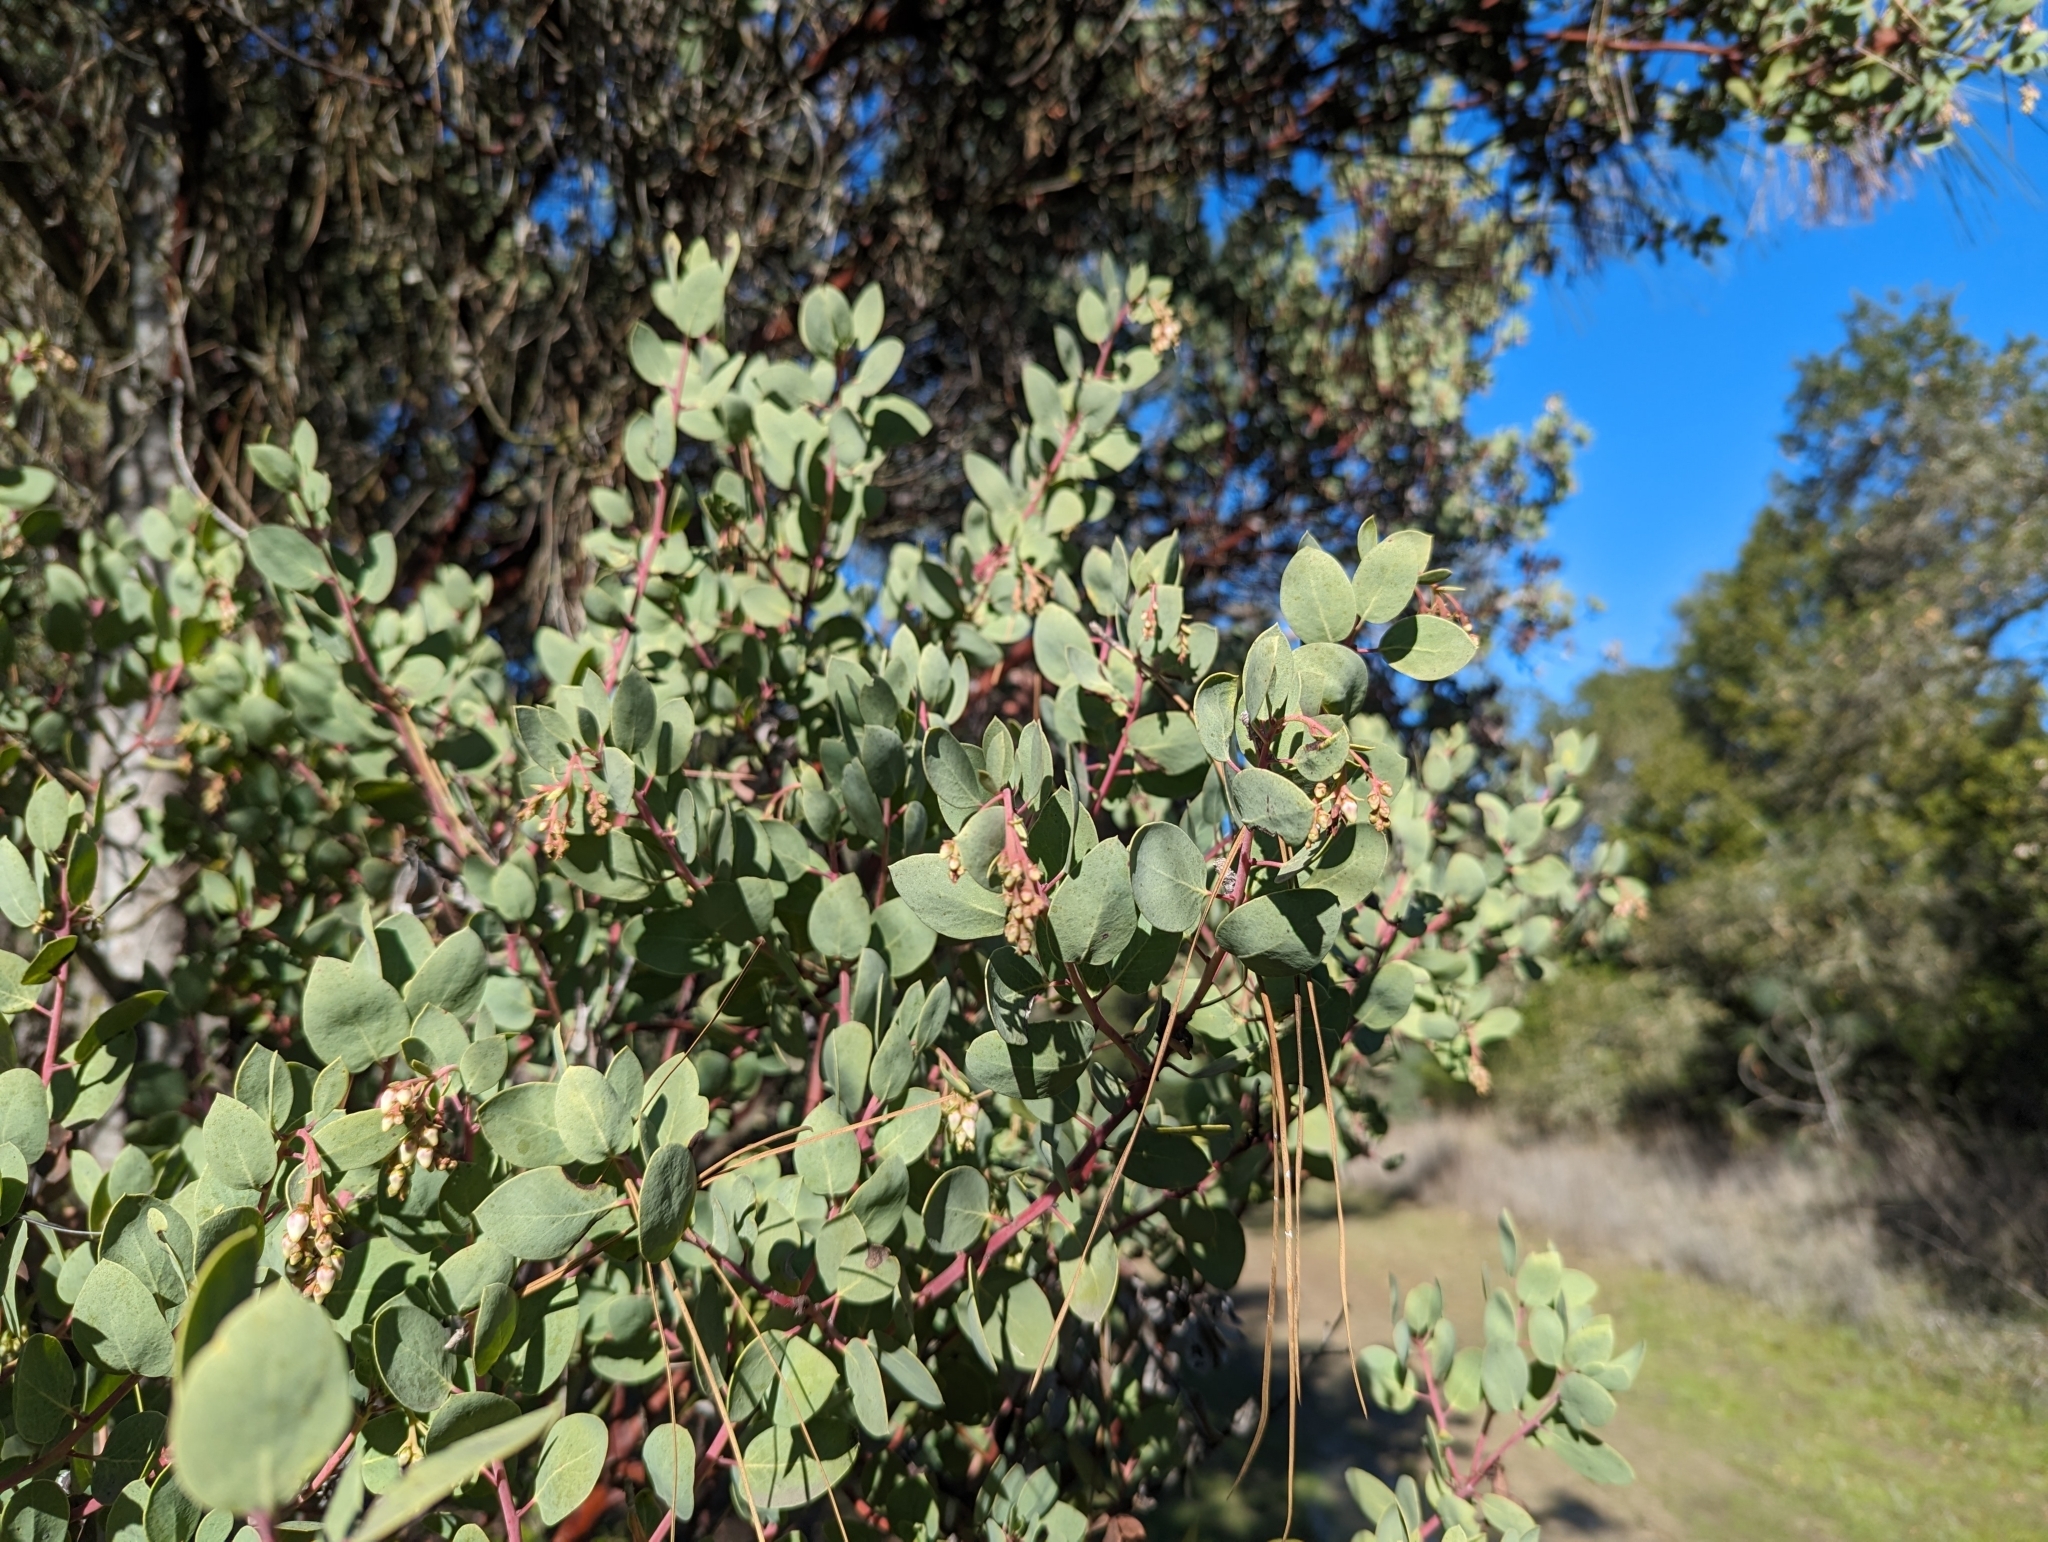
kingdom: Plantae
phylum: Tracheophyta
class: Magnoliopsida
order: Ericales
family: Ericaceae
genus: Arctostaphylos
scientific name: Arctostaphylos glauca
